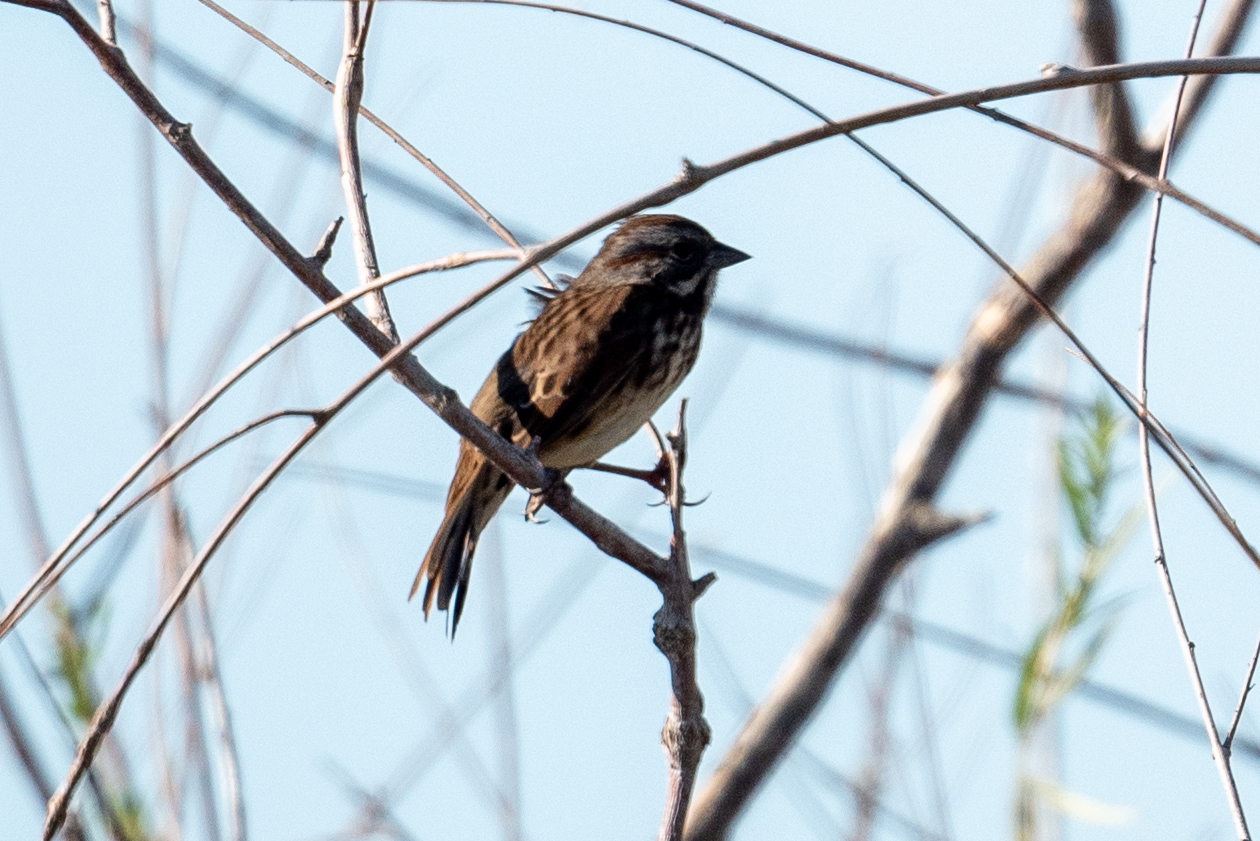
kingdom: Animalia
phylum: Chordata
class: Aves
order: Passeriformes
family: Passerellidae
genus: Melospiza
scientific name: Melospiza melodia
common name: Song sparrow
